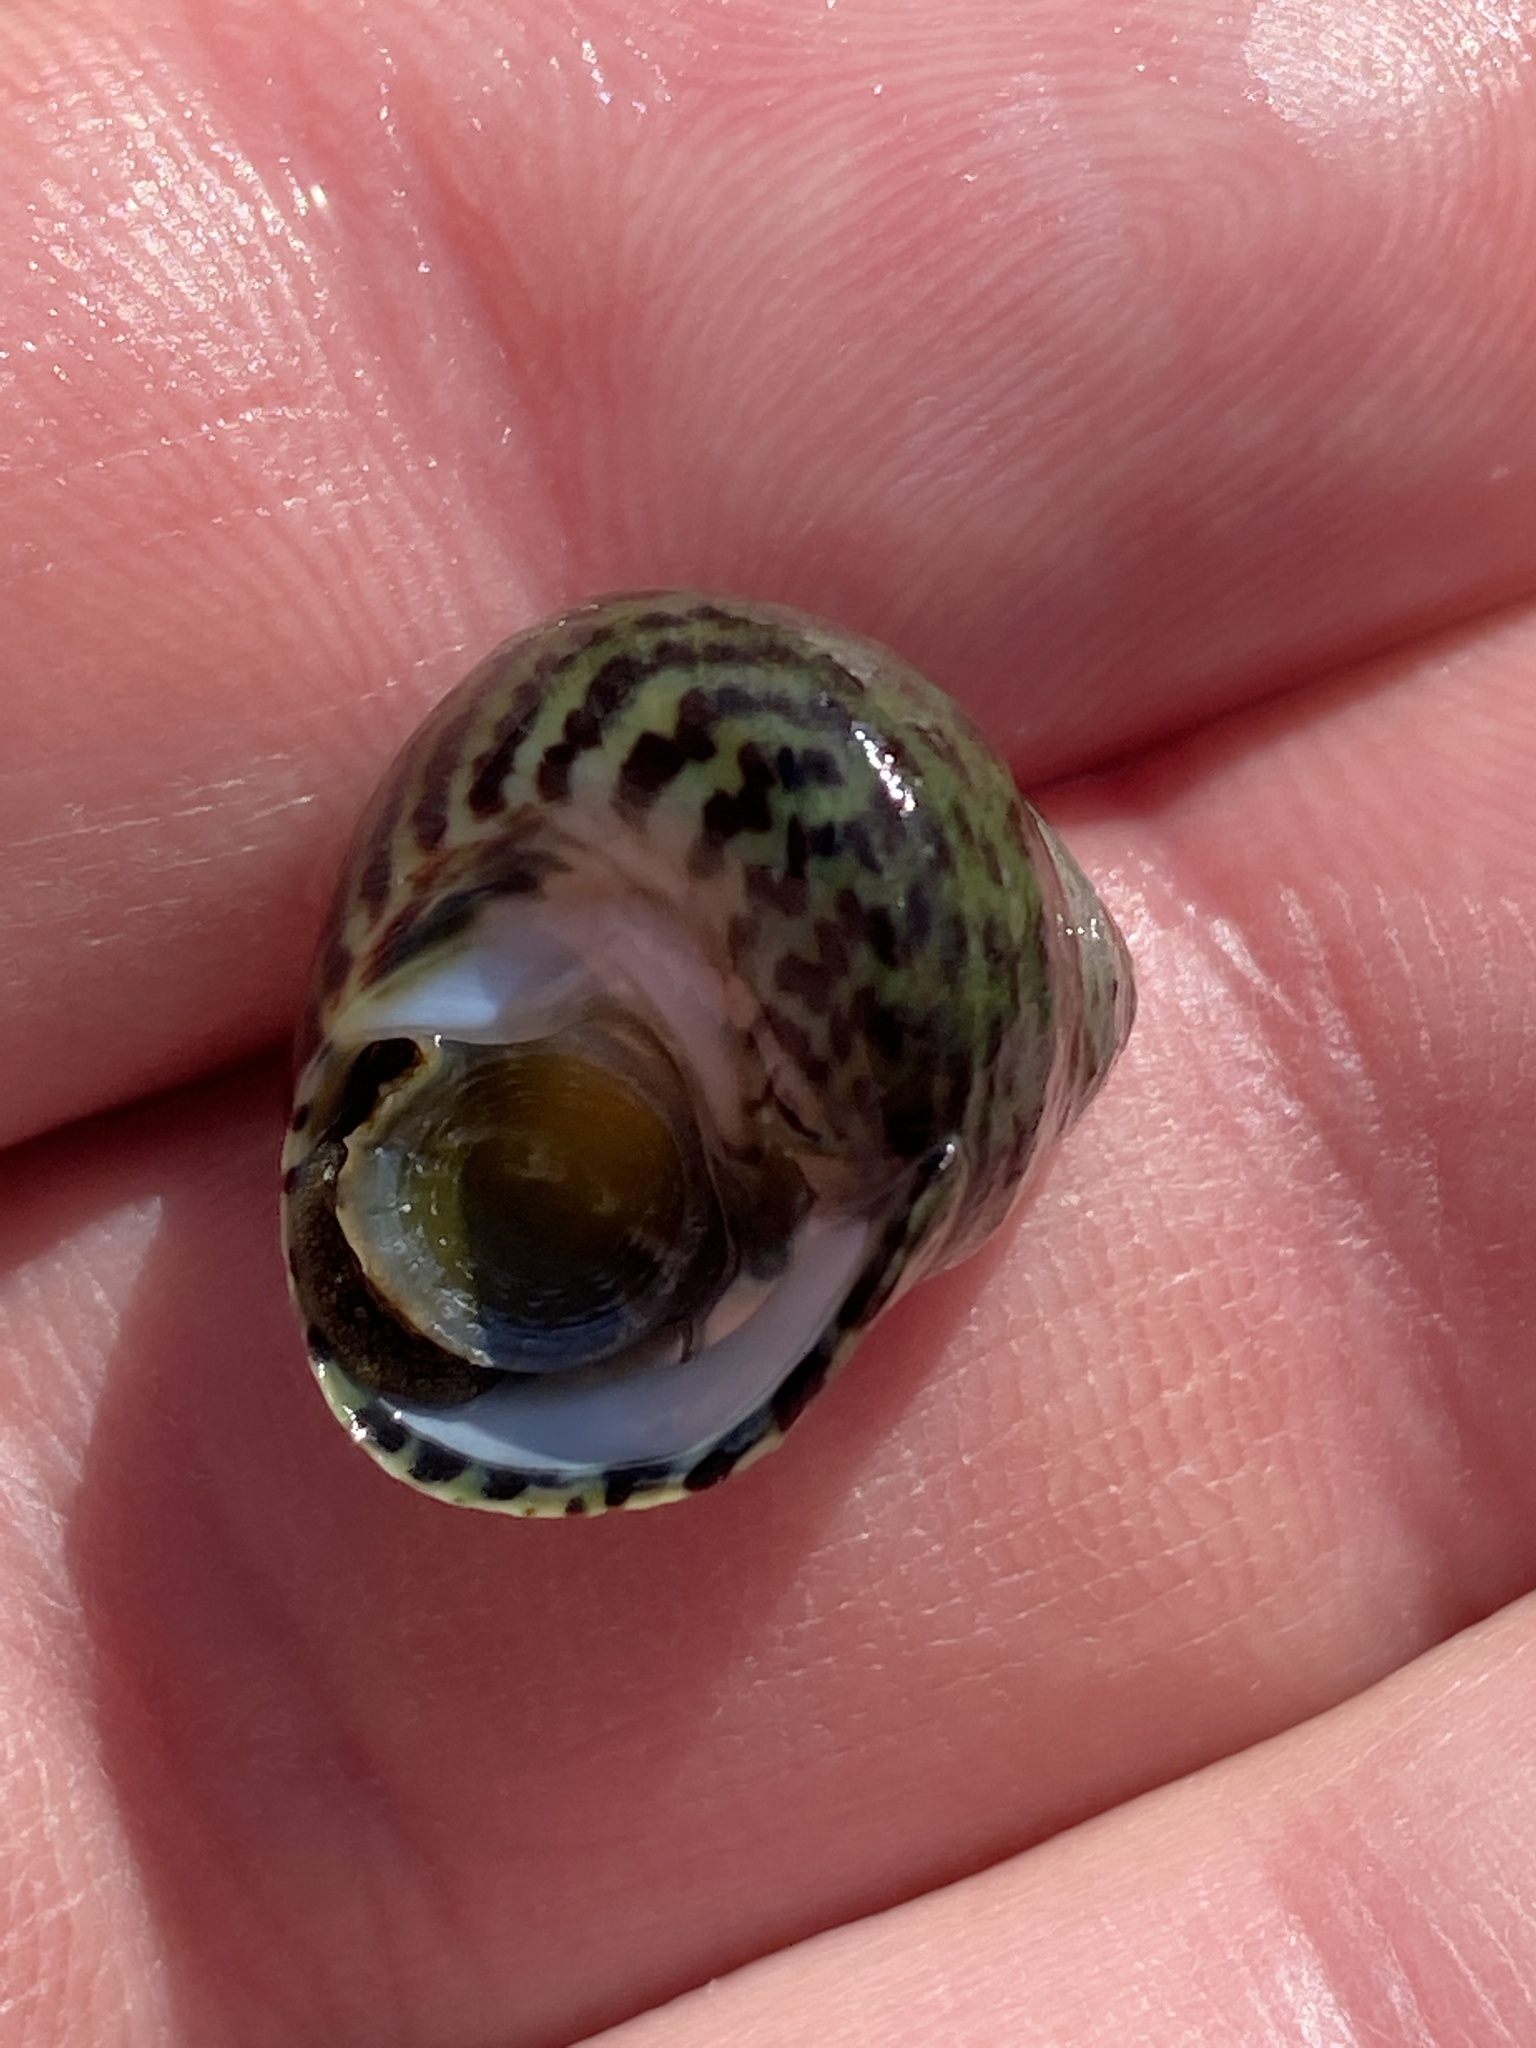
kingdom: Animalia
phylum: Mollusca
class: Gastropoda
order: Trochida
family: Trochidae
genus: Phorcus
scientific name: Phorcus sauciatus
